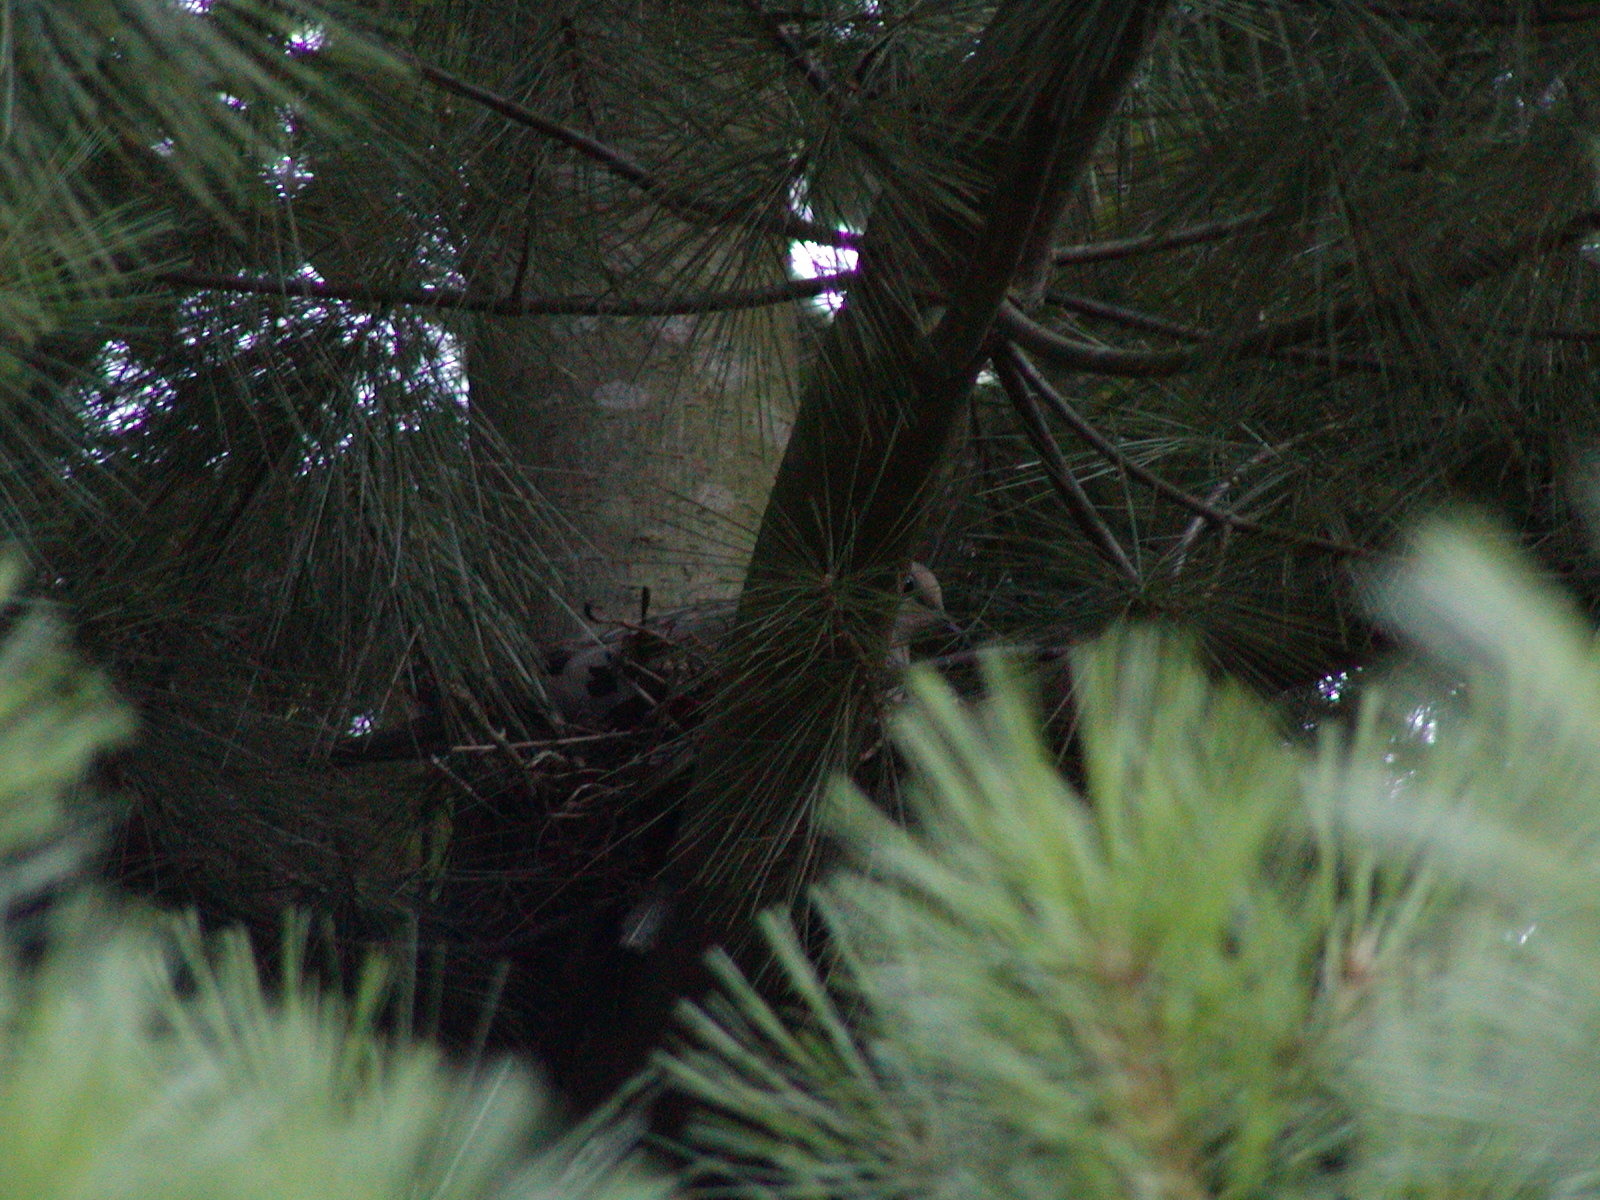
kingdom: Animalia
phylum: Chordata
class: Aves
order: Columbiformes
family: Columbidae
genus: Zenaida
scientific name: Zenaida macroura
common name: Mourning dove
